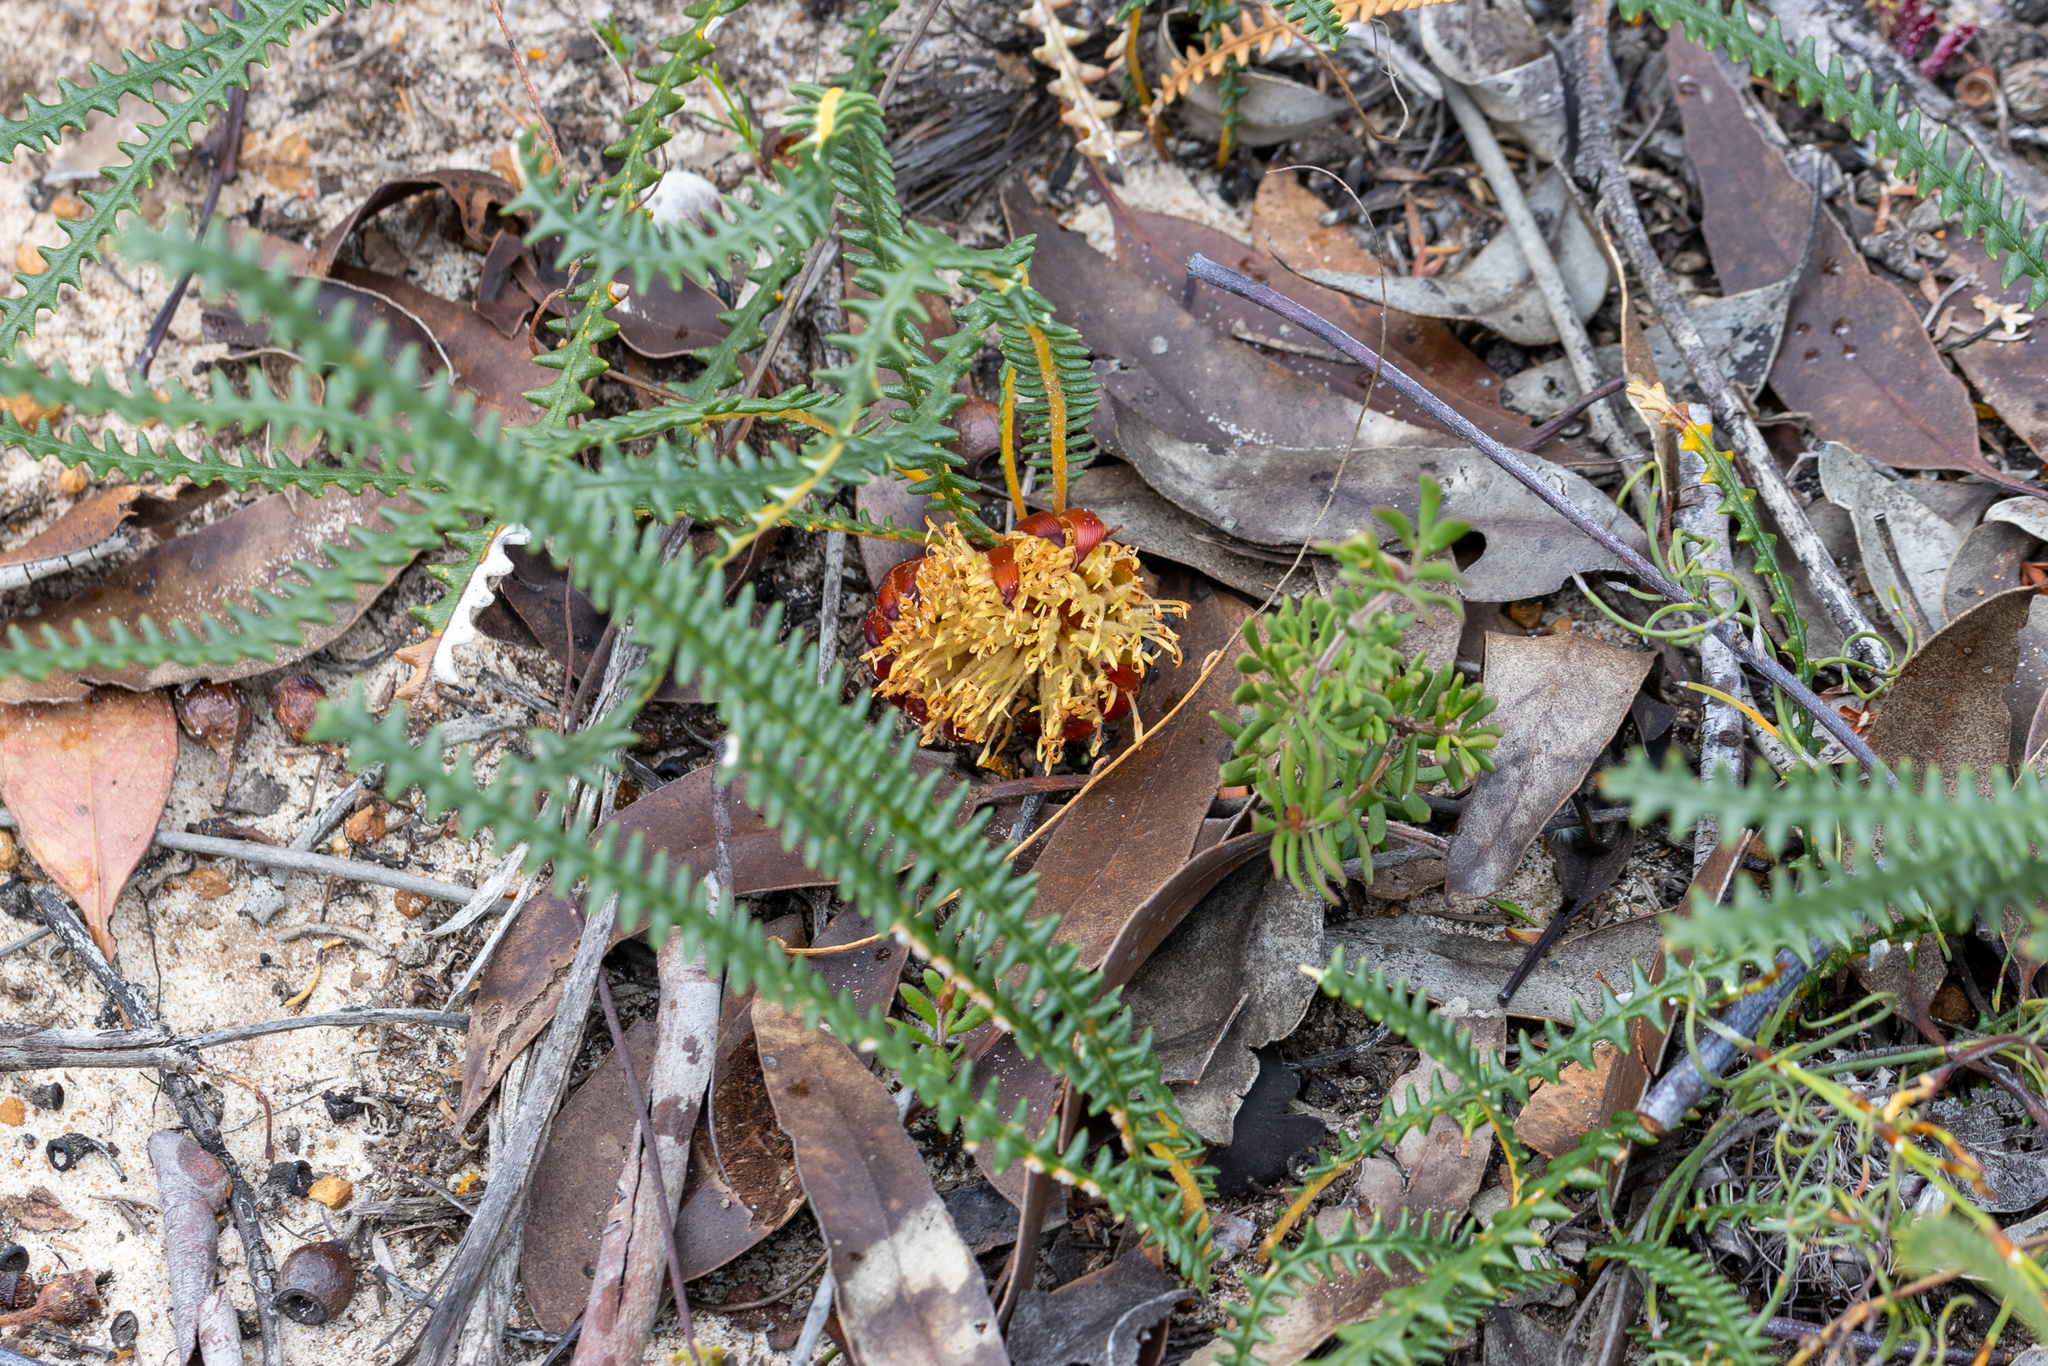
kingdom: Plantae
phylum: Tracheophyta
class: Magnoliopsida
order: Proteales
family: Proteaceae
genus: Banksia
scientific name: Banksia obtusa
